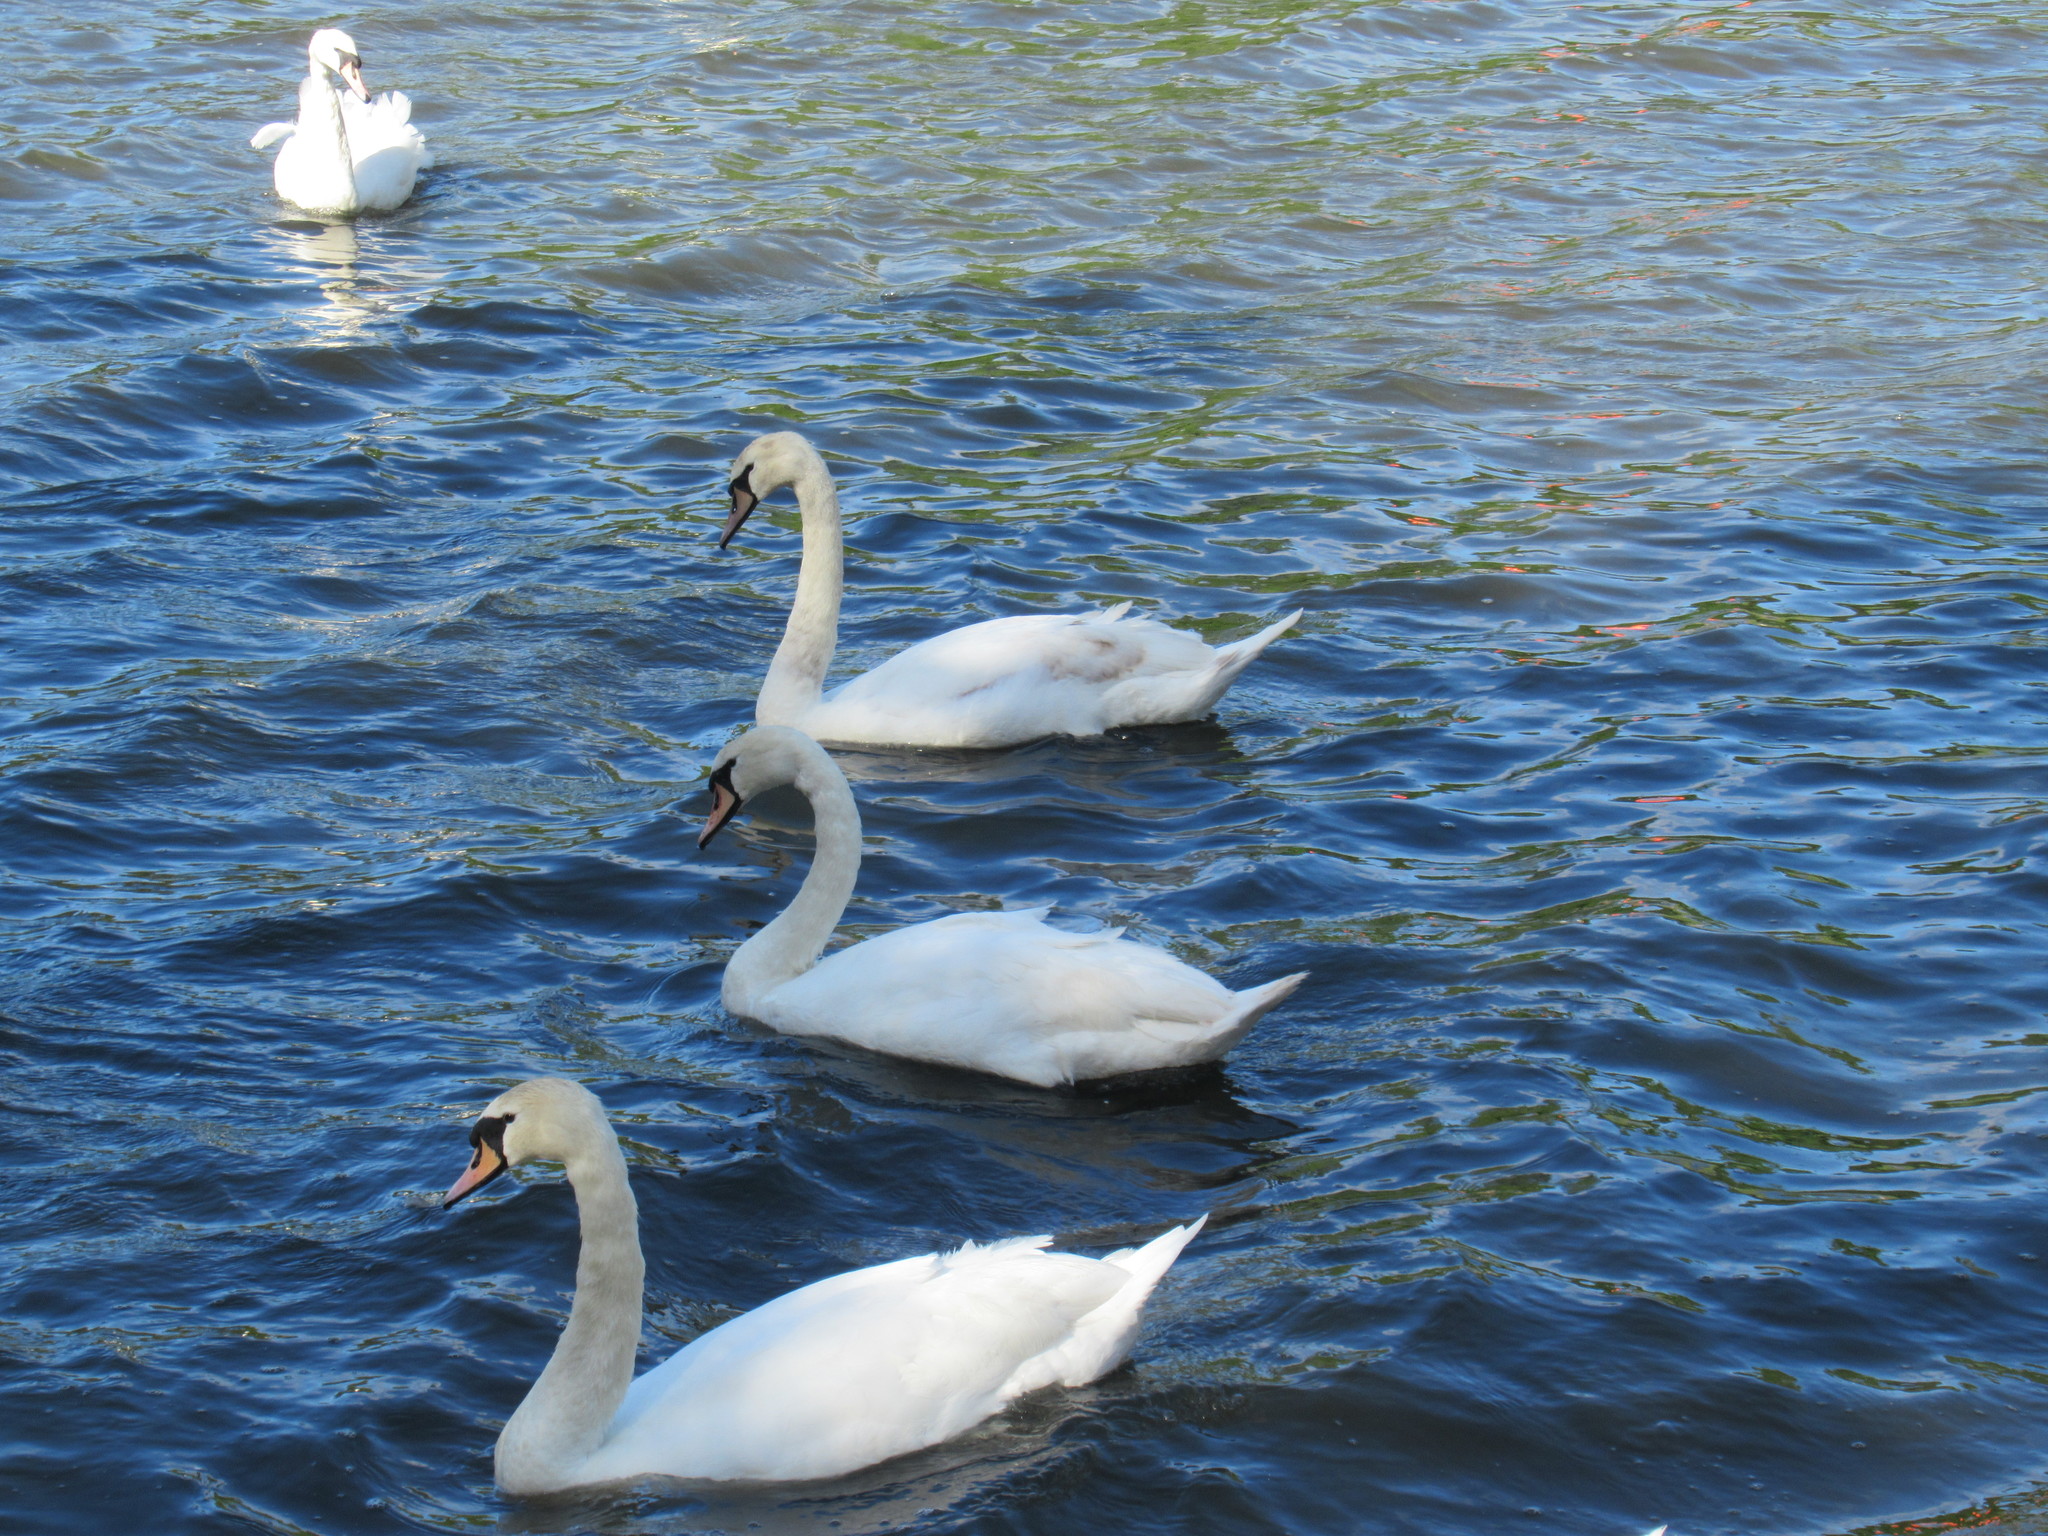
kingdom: Animalia
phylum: Chordata
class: Aves
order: Anseriformes
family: Anatidae
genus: Cygnus
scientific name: Cygnus olor
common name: Mute swan
